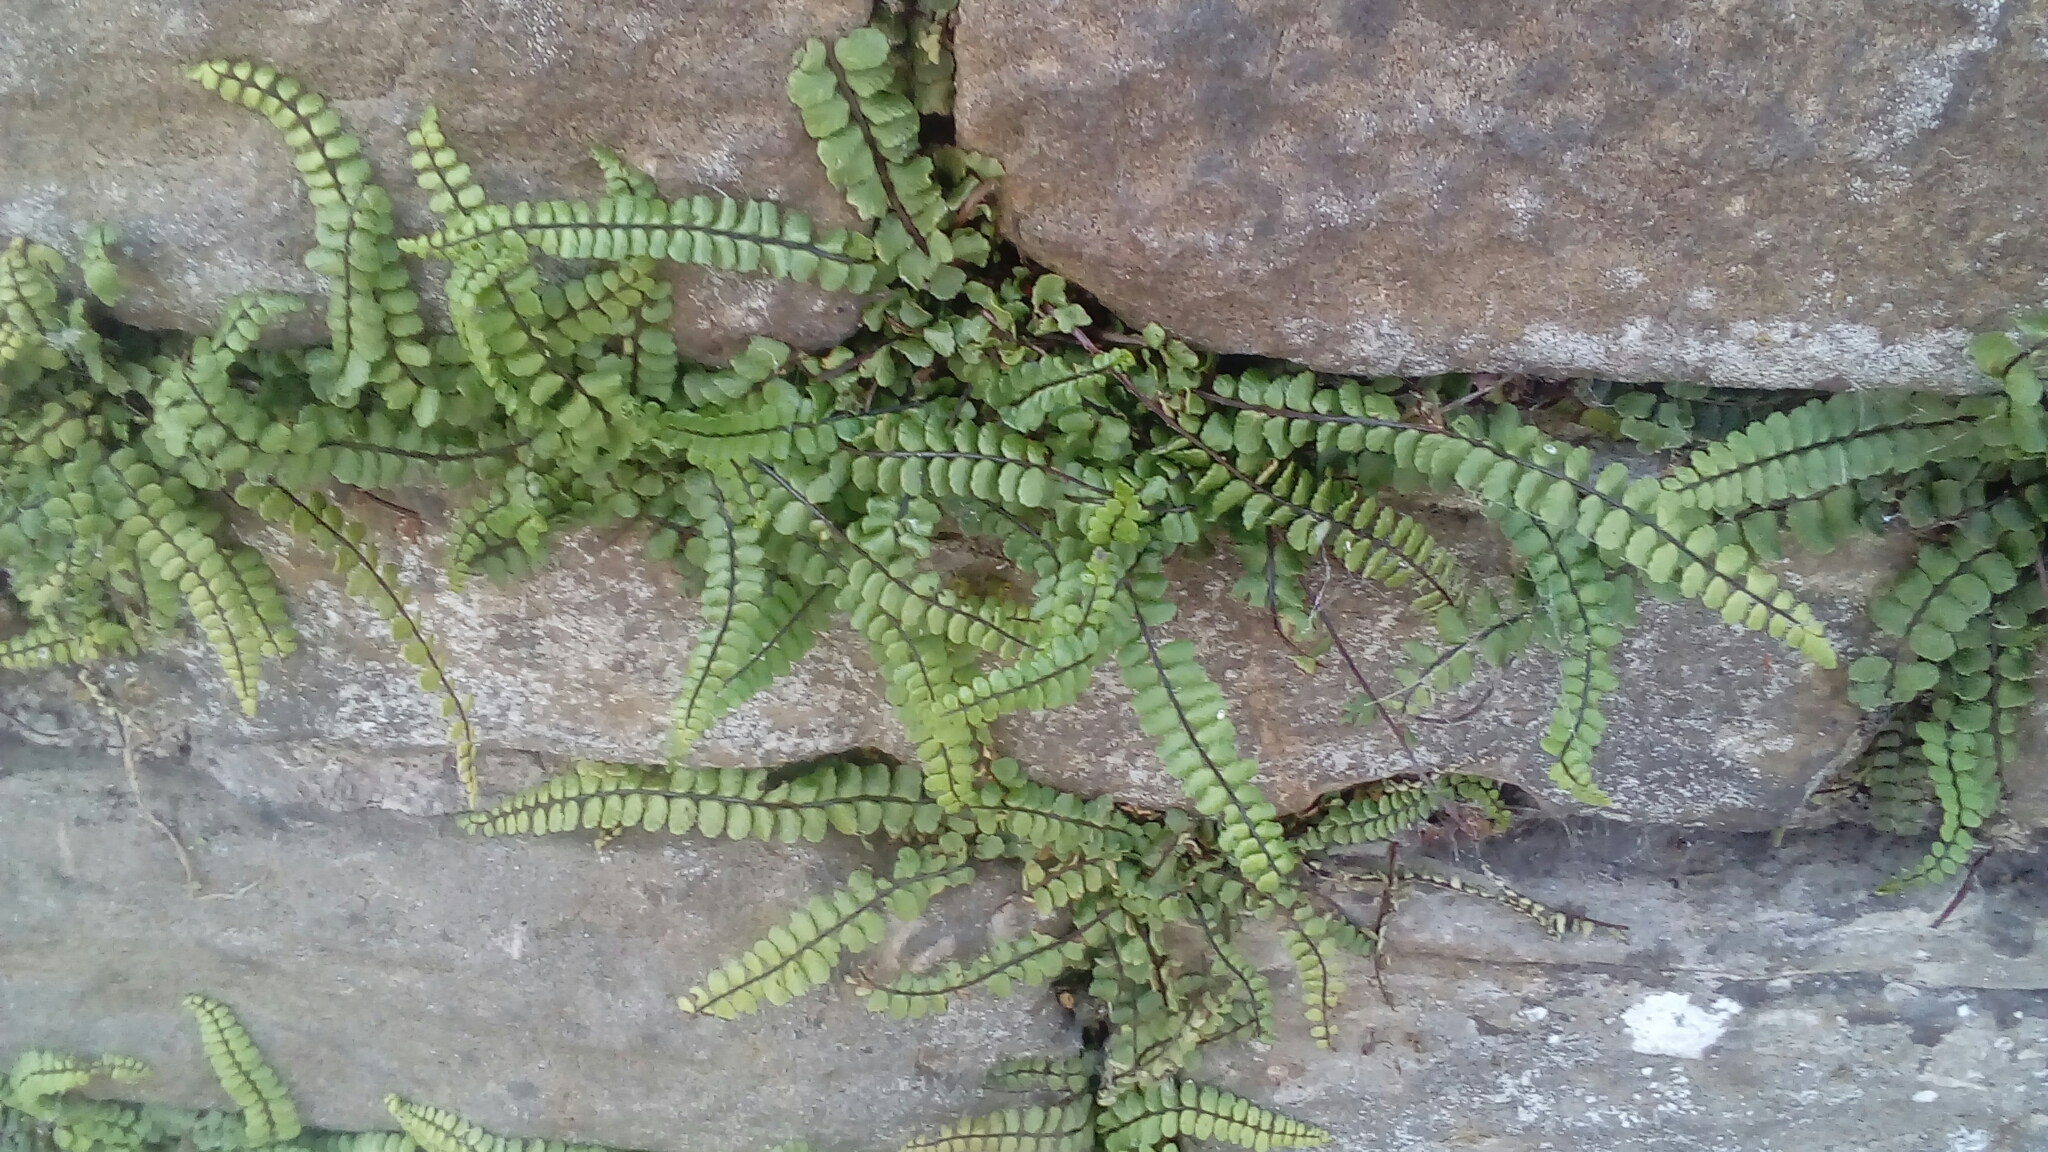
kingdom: Plantae
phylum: Tracheophyta
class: Polypodiopsida
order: Polypodiales
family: Aspleniaceae
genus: Asplenium
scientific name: Asplenium trichomanes
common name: Maidenhair spleenwort
